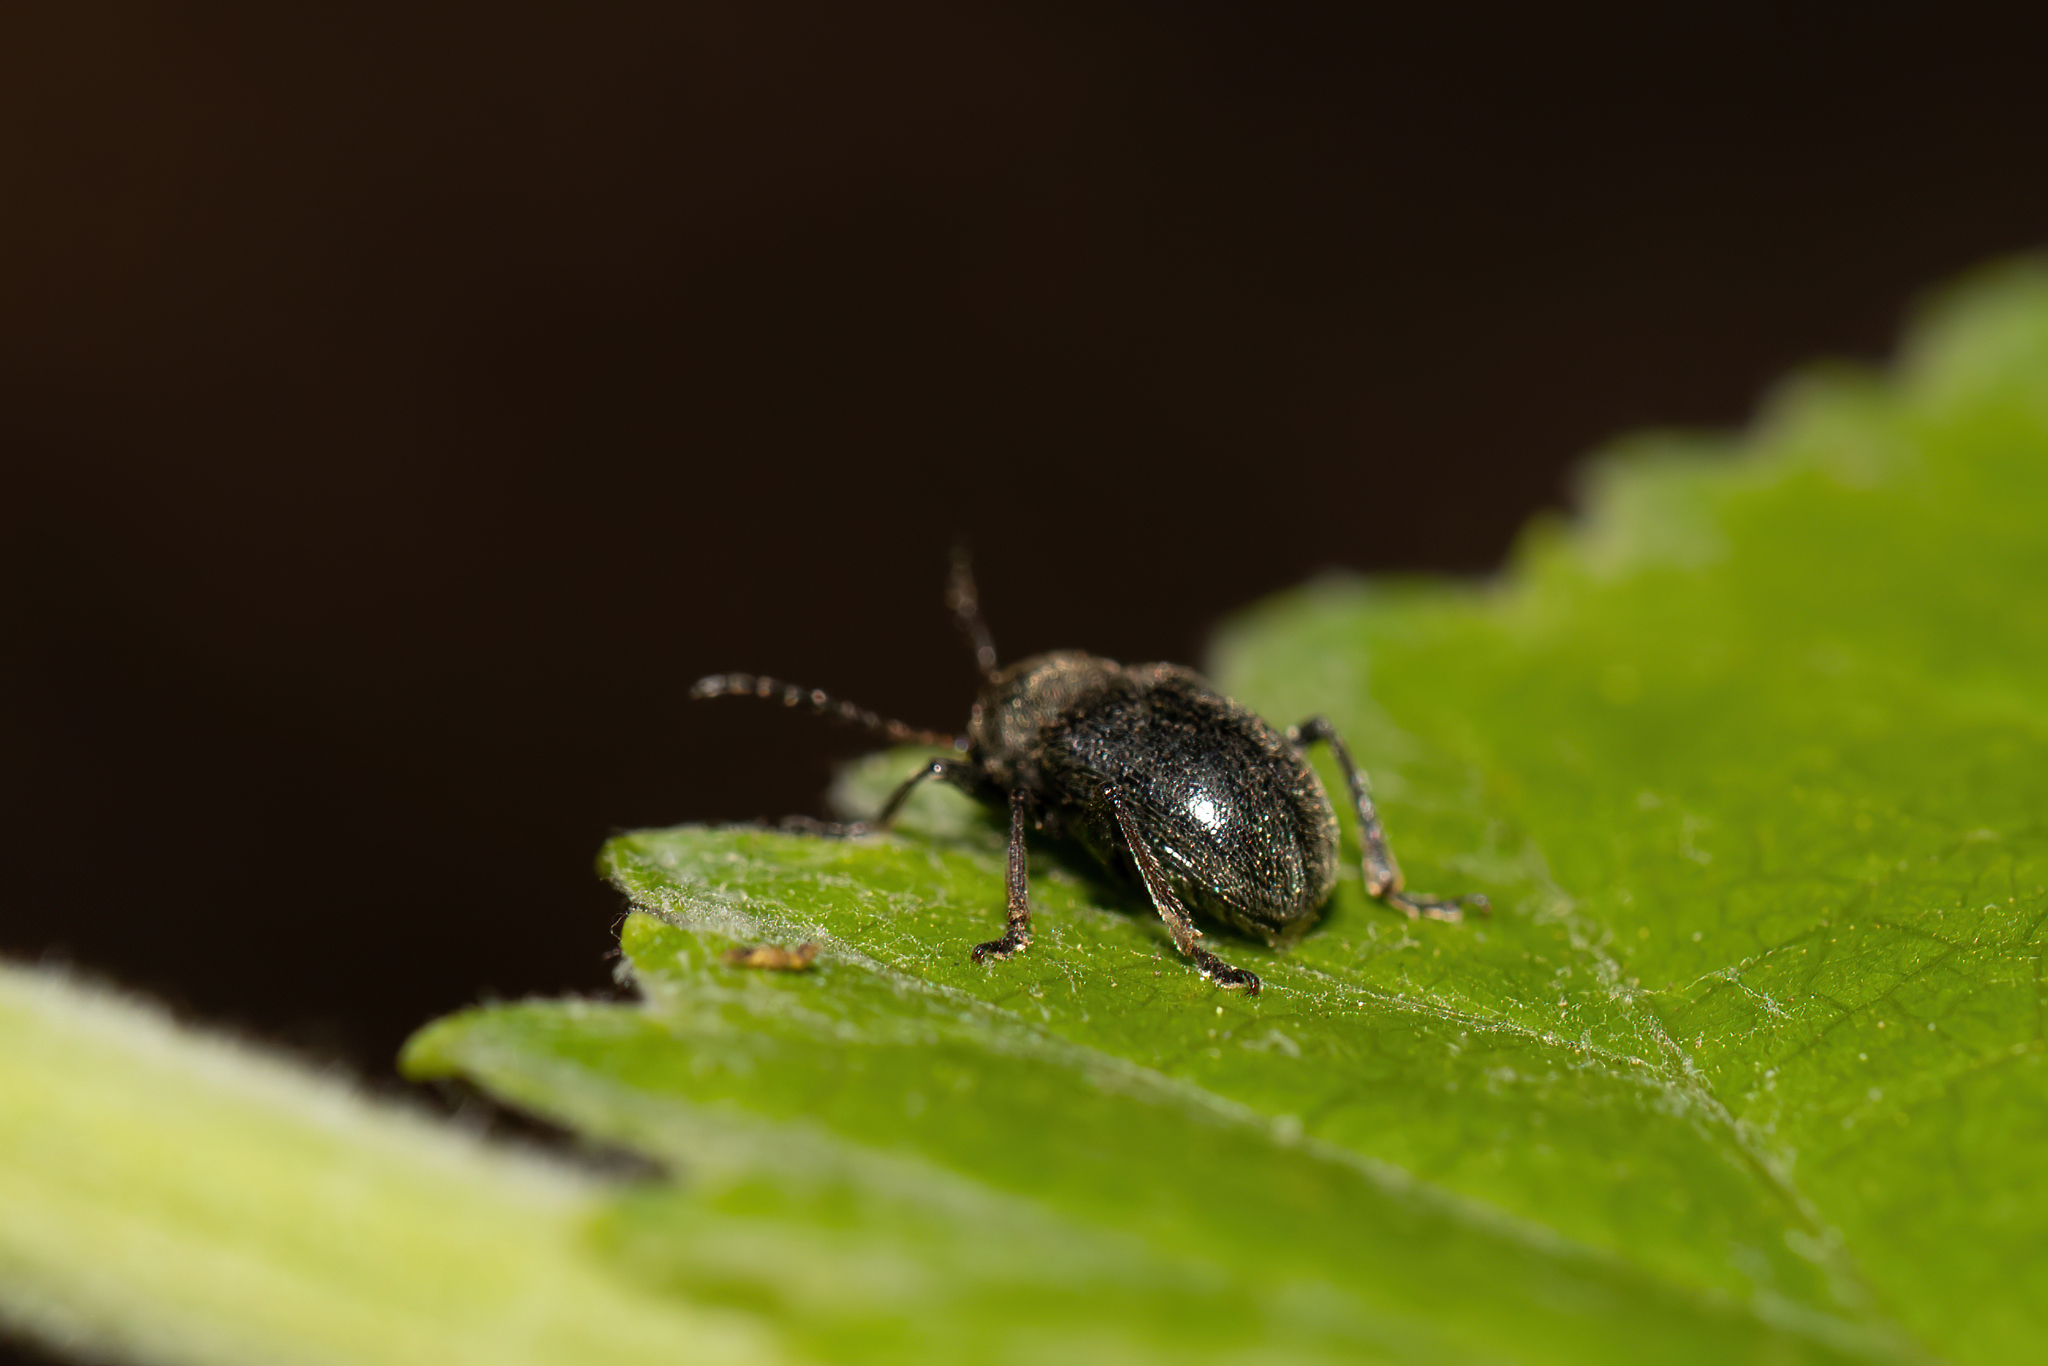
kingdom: Animalia
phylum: Arthropoda
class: Insecta
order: Coleoptera
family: Chrysomelidae
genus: Bromius
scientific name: Bromius obscurus
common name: Western grape rootworm
